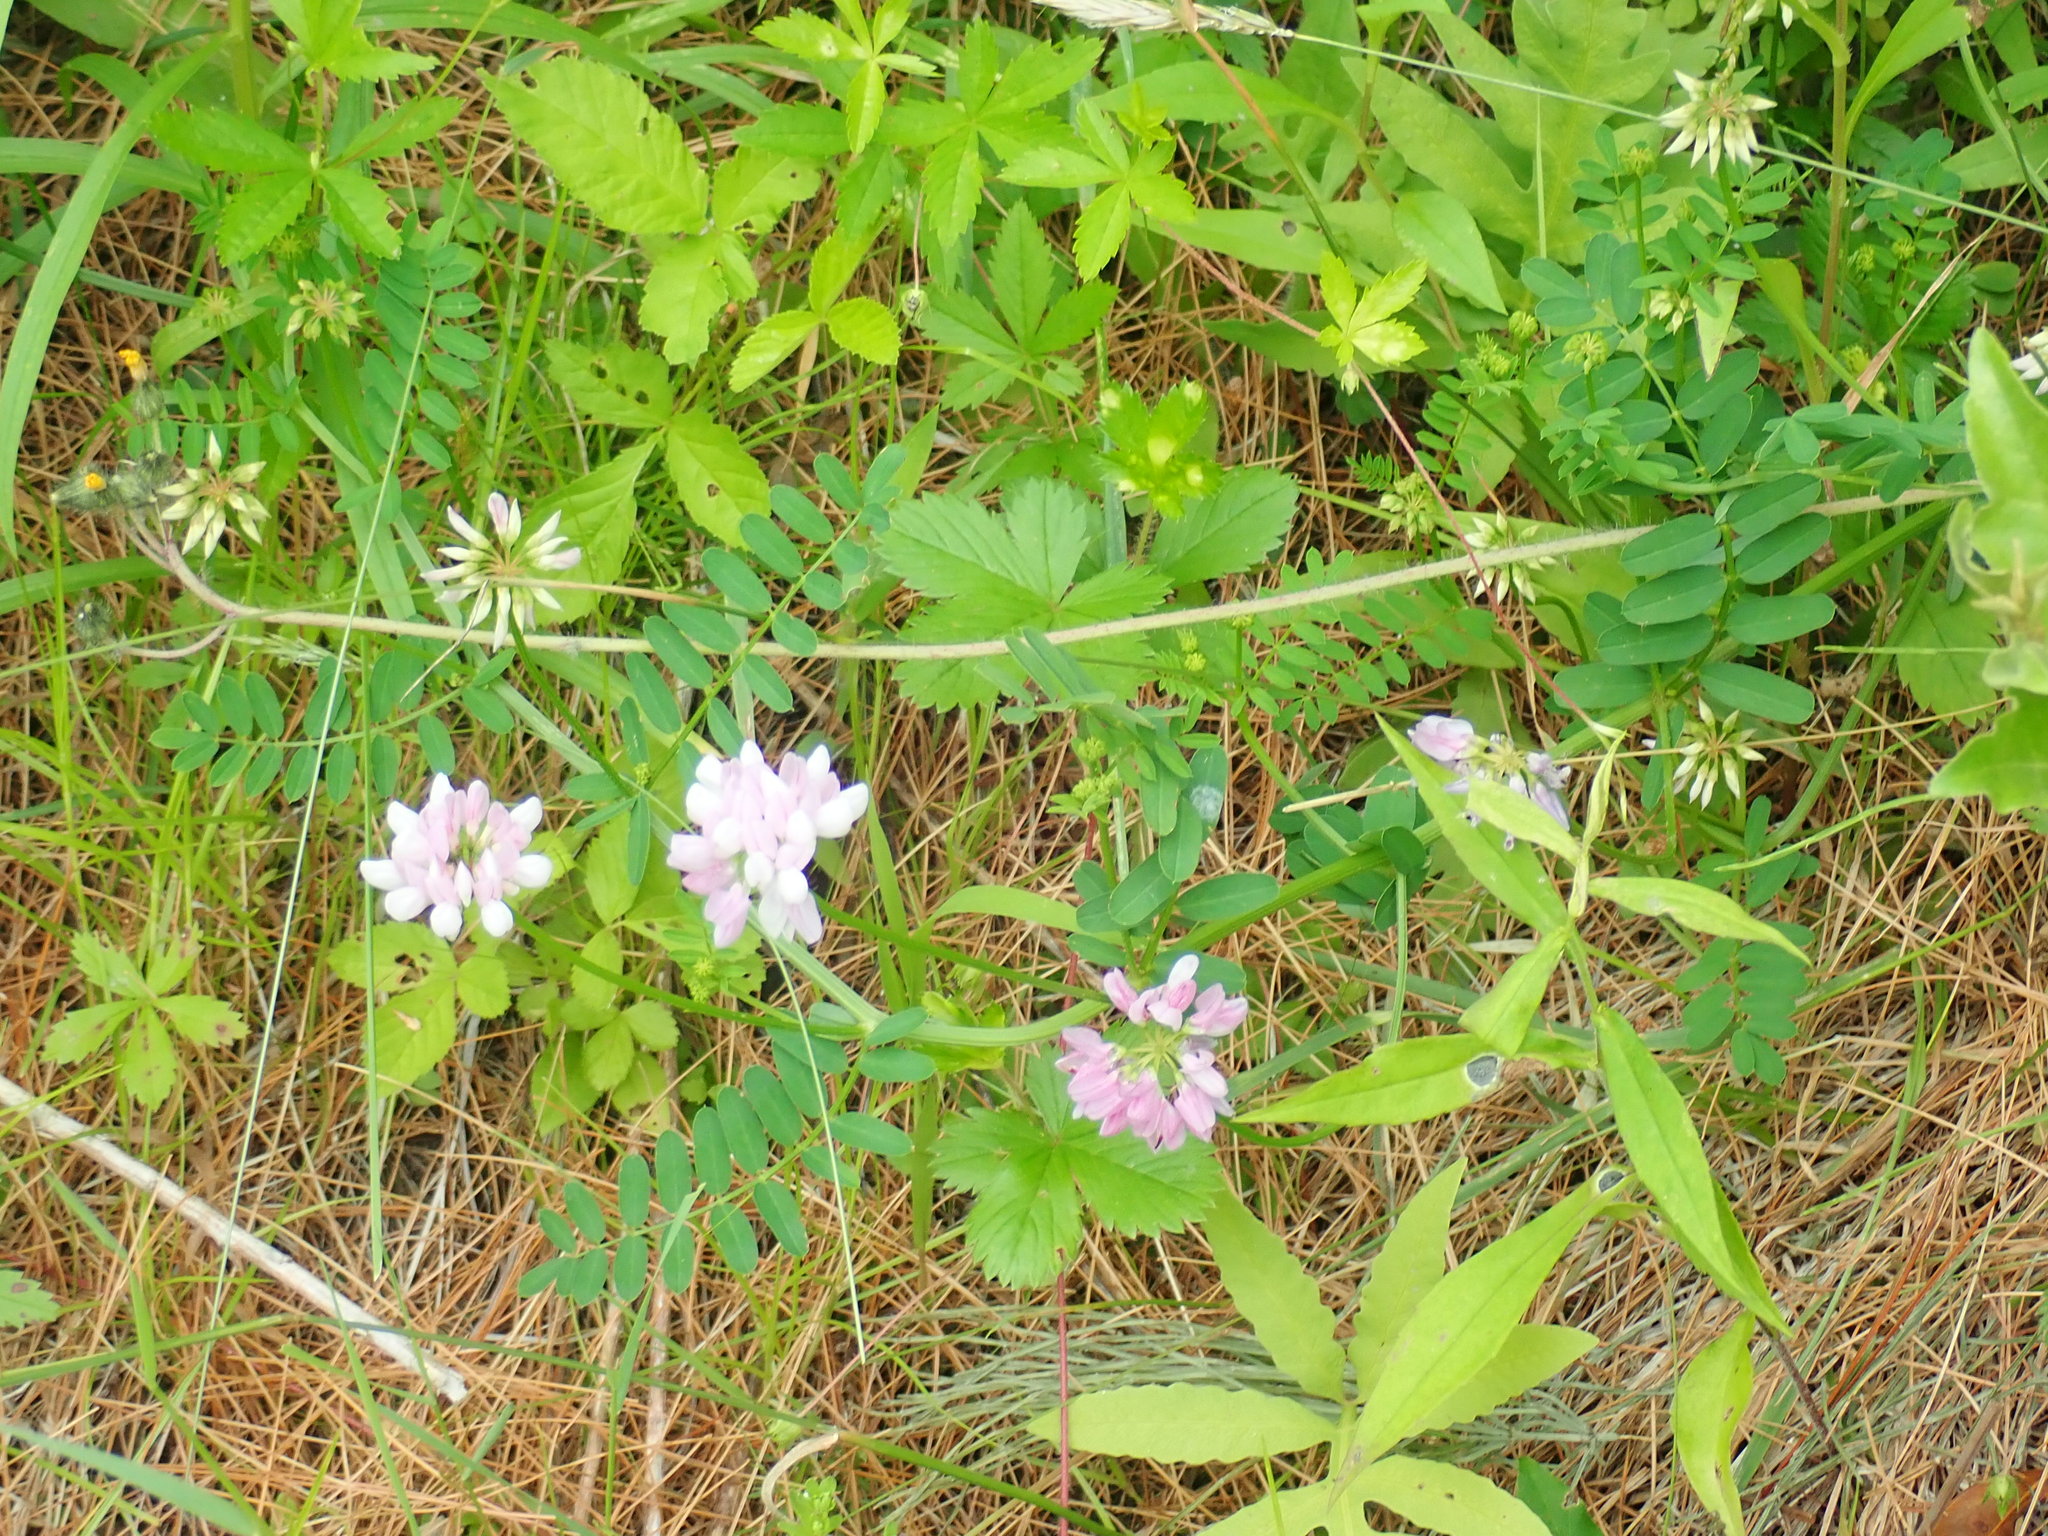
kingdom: Plantae
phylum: Tracheophyta
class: Magnoliopsida
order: Fabales
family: Fabaceae
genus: Coronilla
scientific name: Coronilla varia
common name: Crownvetch
